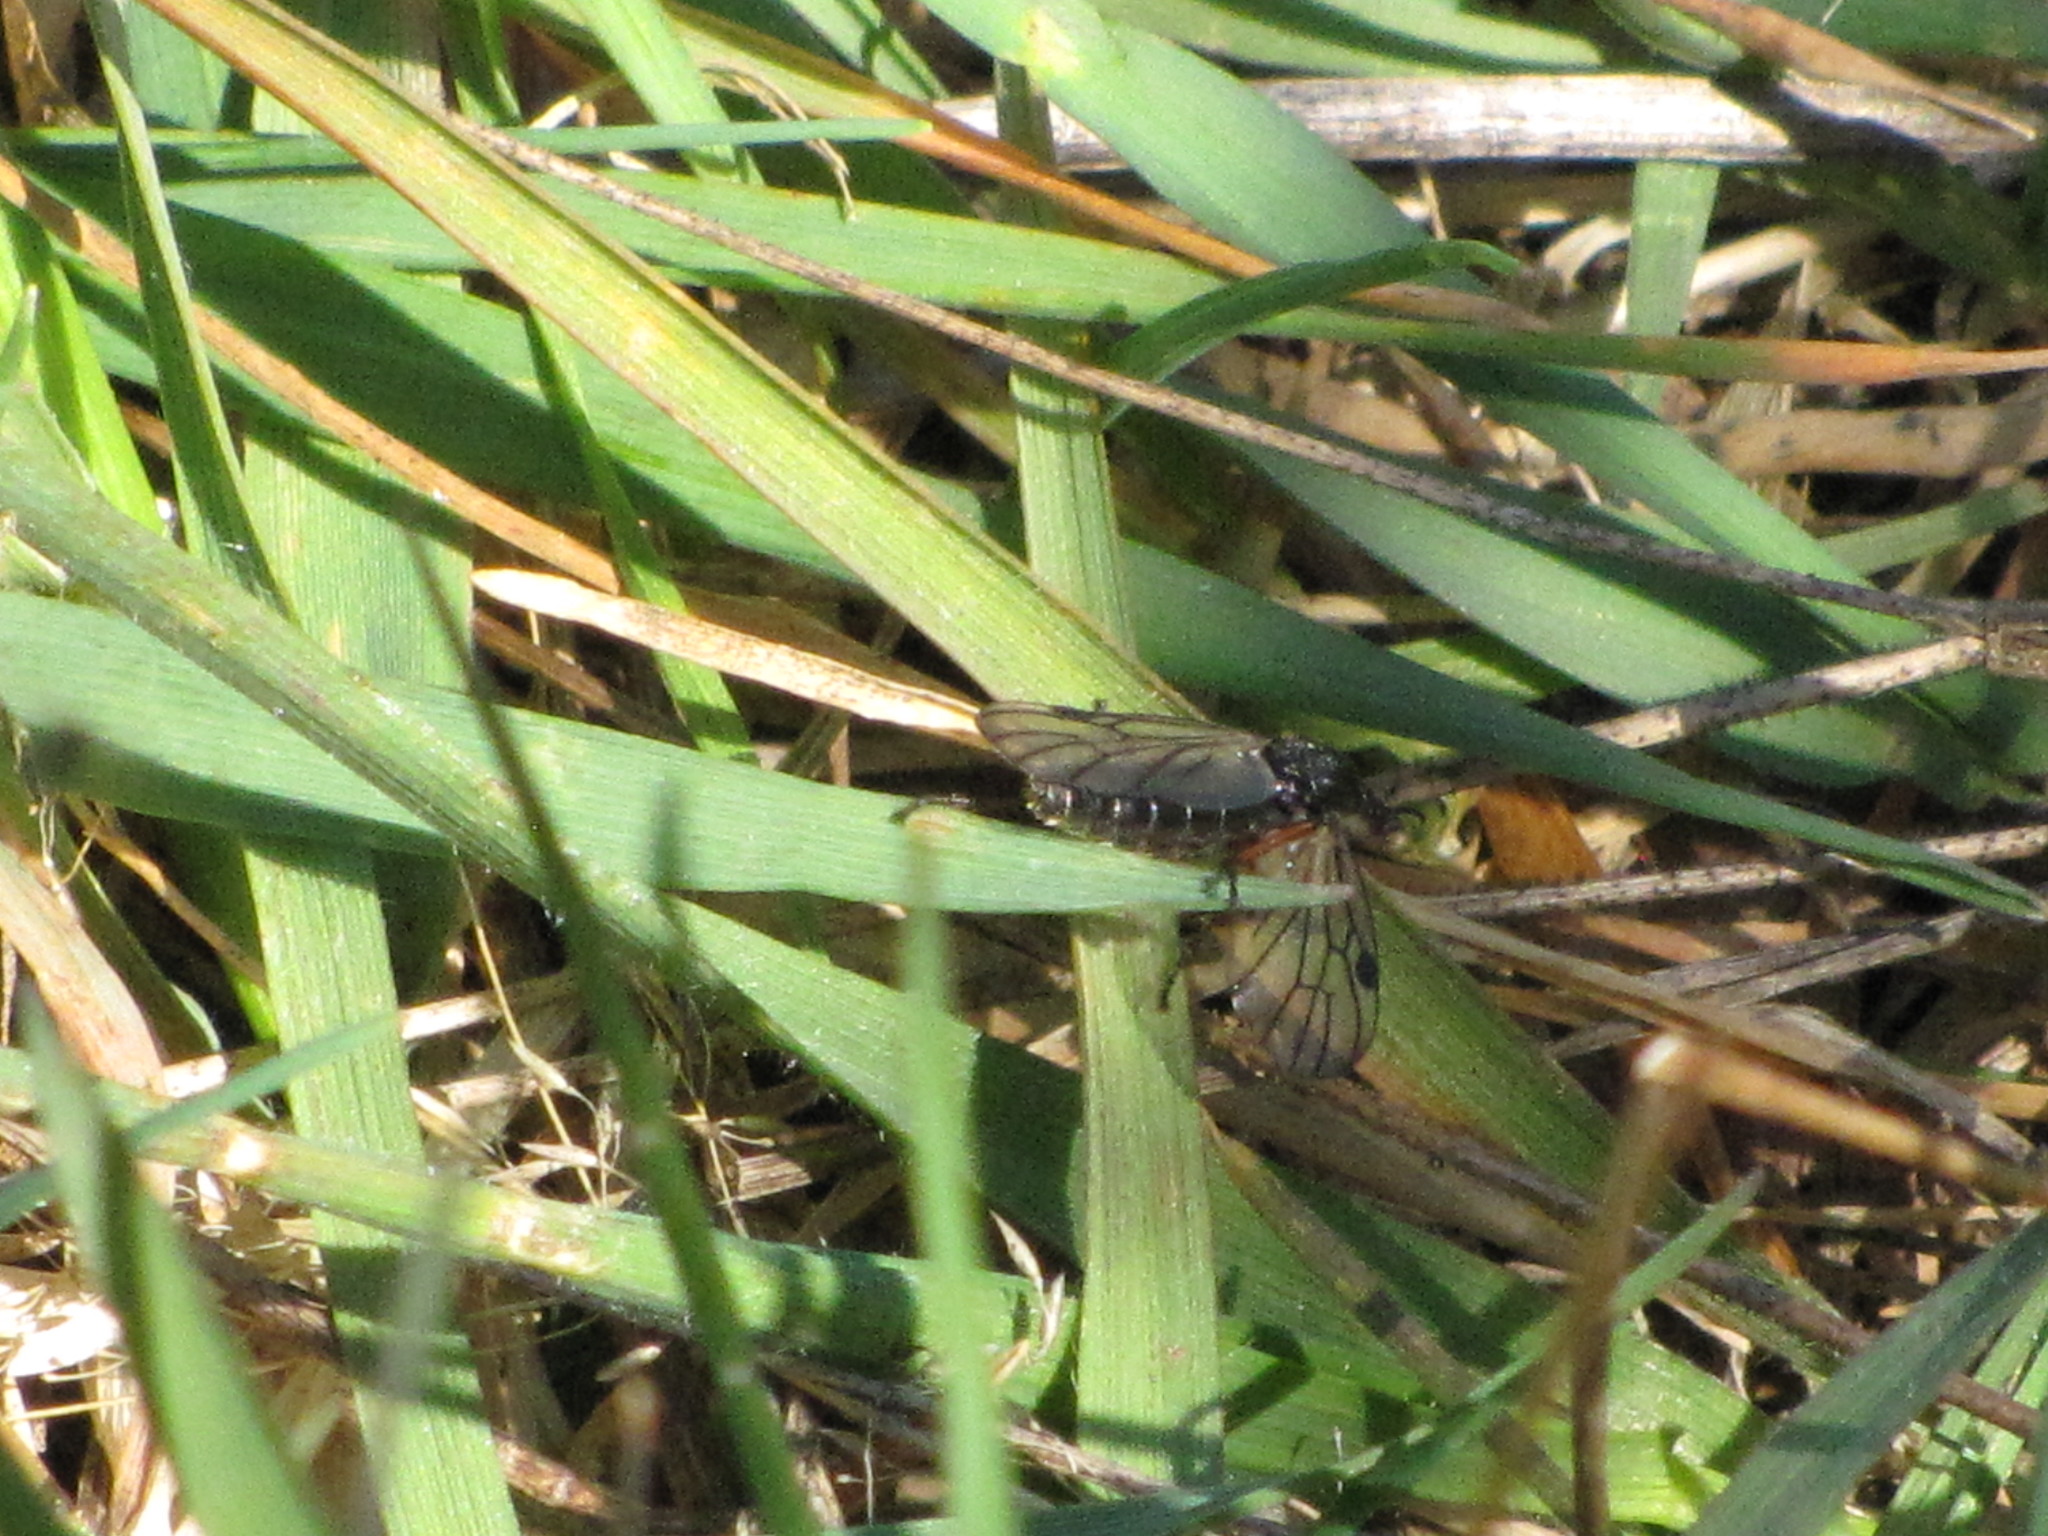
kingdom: Animalia
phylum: Arthropoda
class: Insecta
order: Diptera
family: Bibionidae
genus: Bibio
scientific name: Bibio
